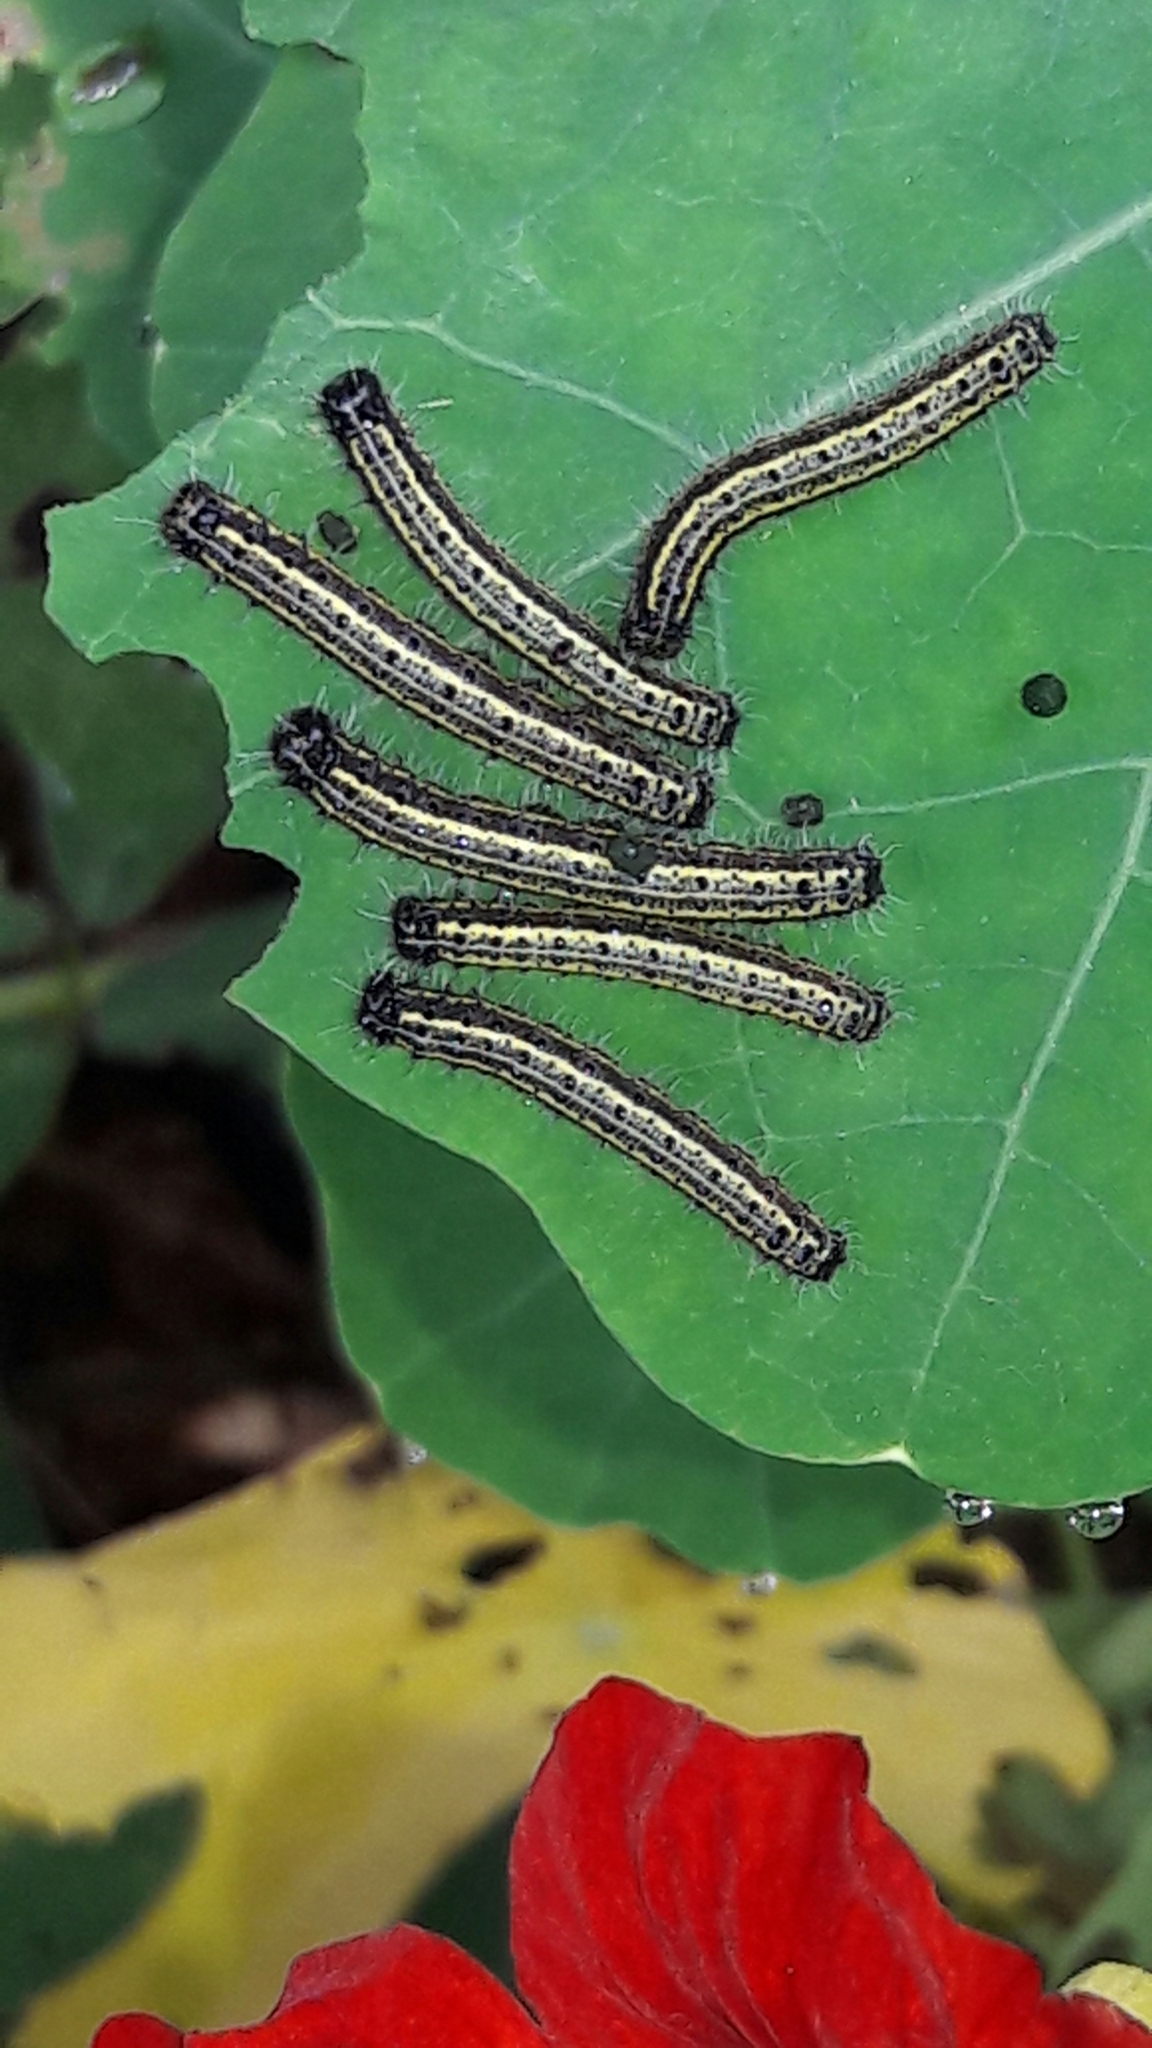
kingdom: Animalia
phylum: Arthropoda
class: Insecta
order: Lepidoptera
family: Pieridae
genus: Ascia
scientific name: Ascia monuste
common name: Great southern white
